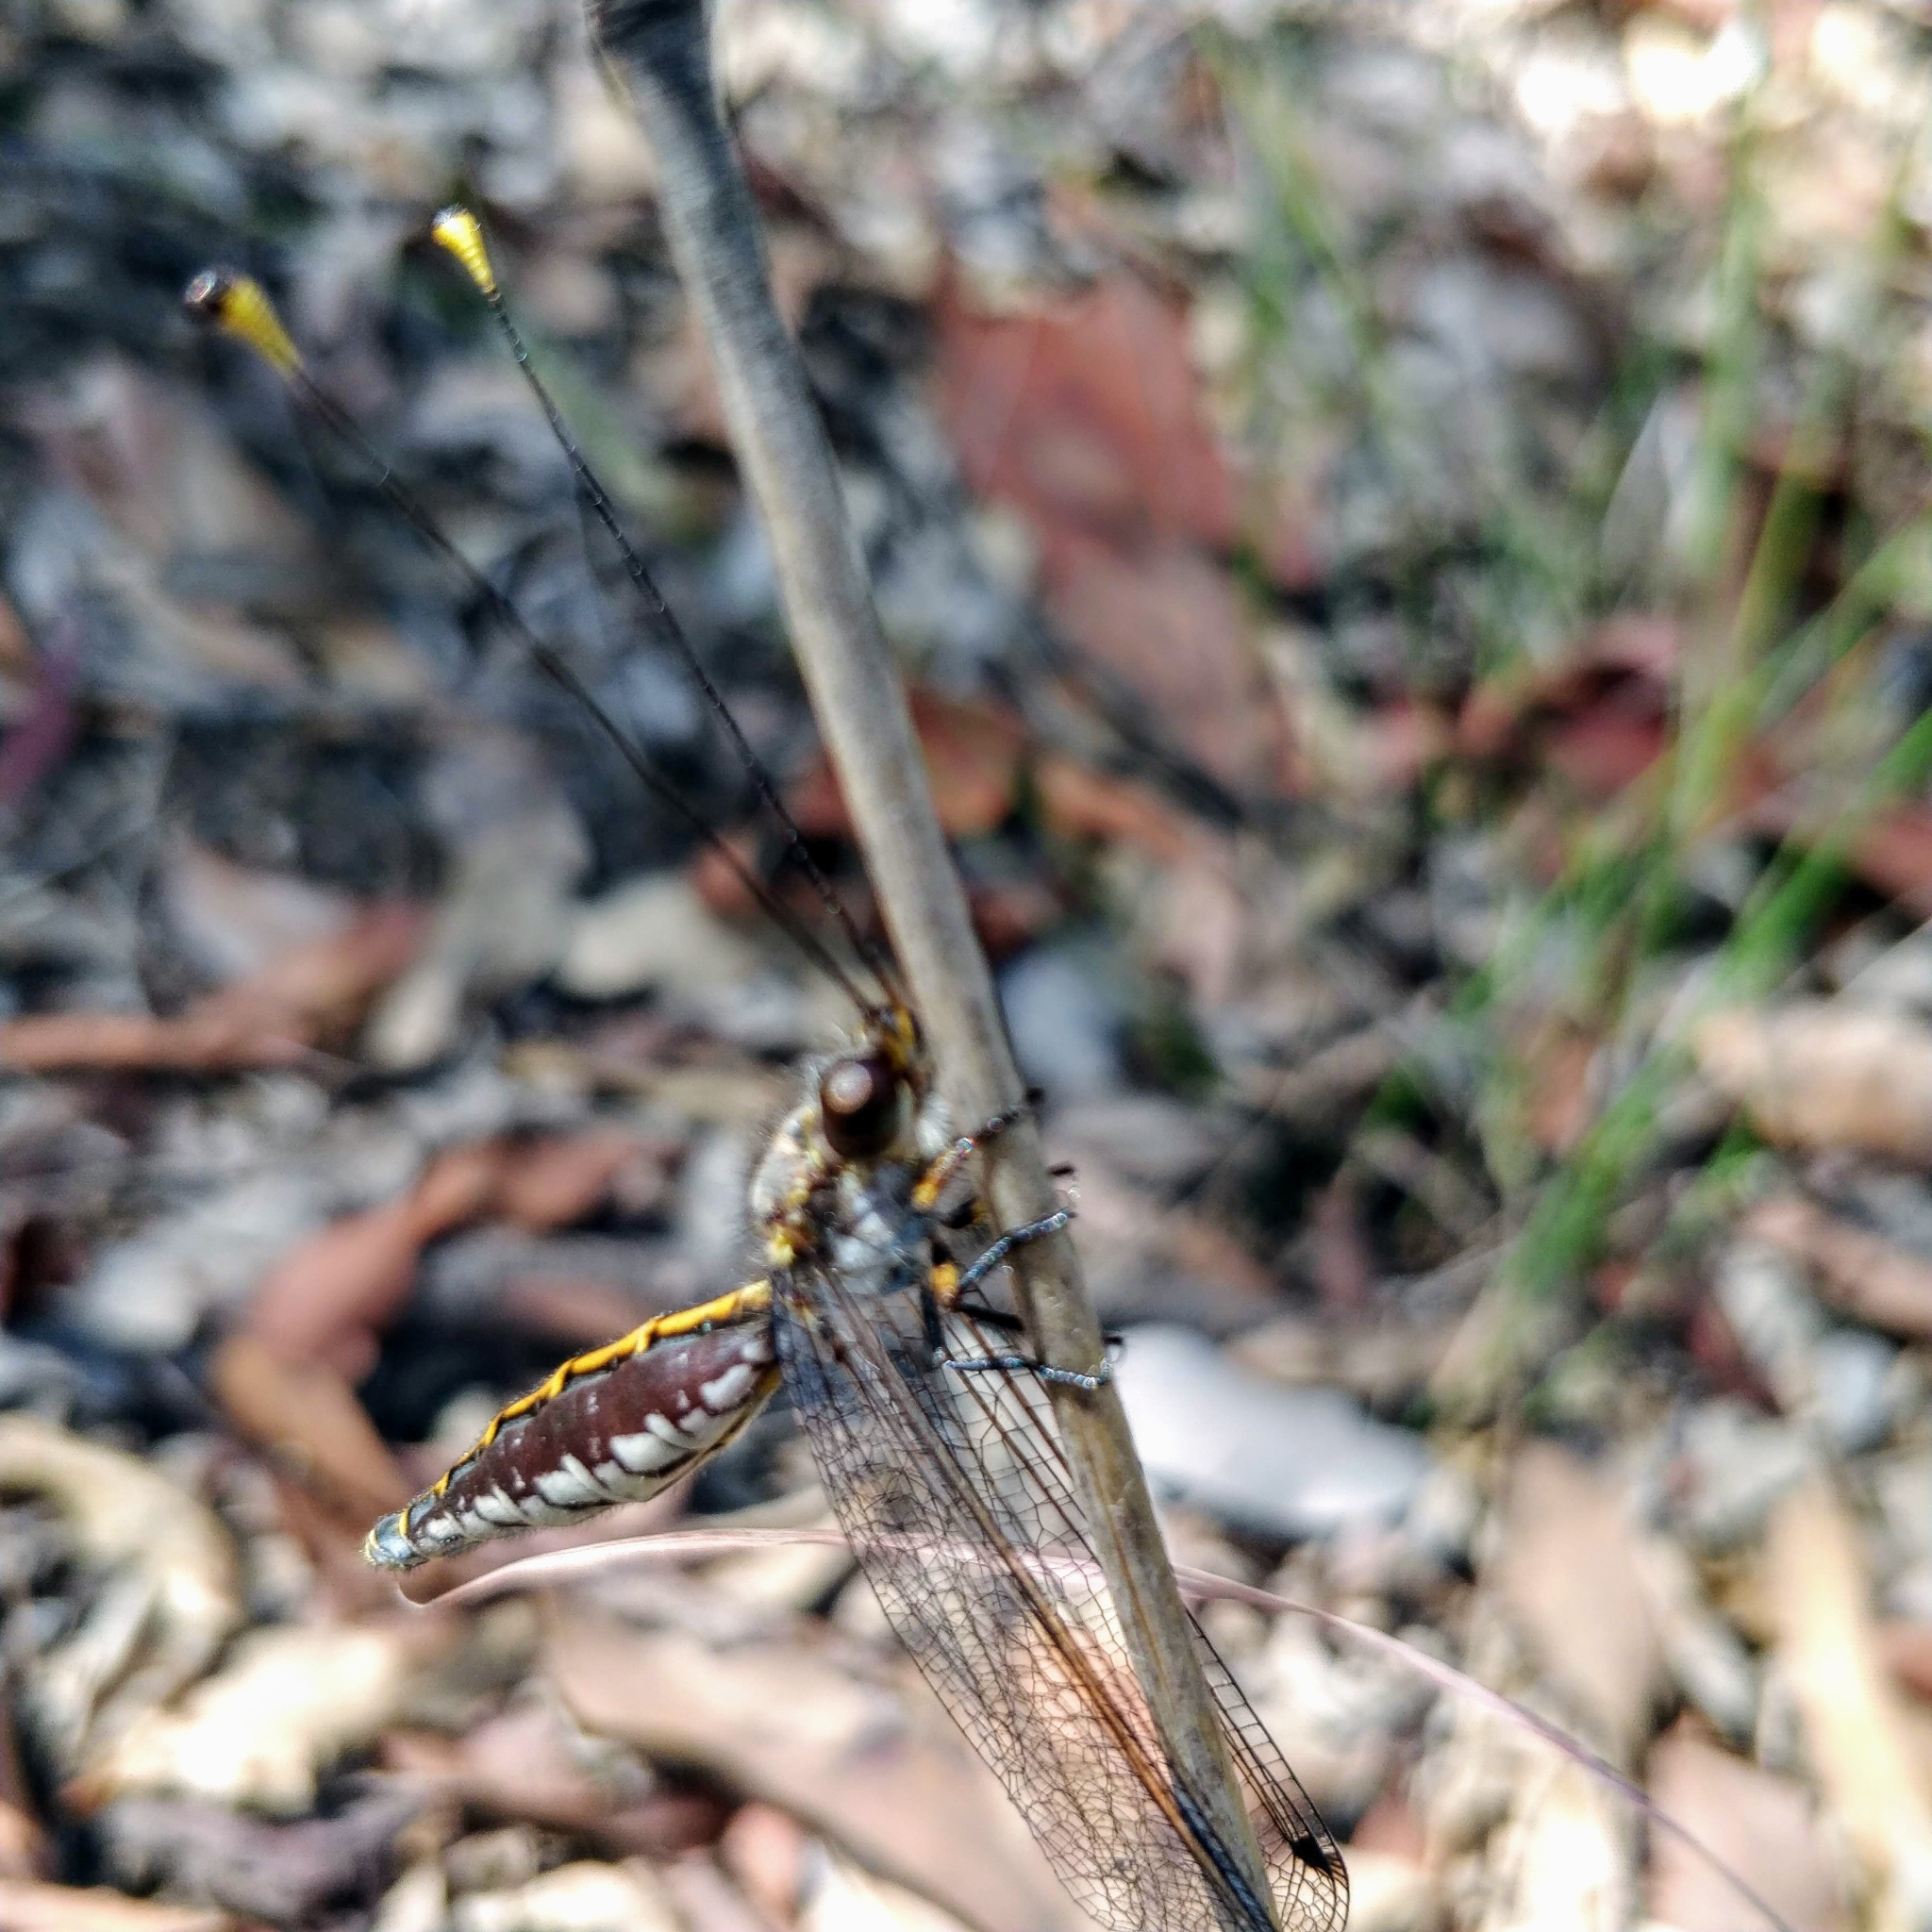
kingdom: Animalia
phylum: Arthropoda
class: Insecta
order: Neuroptera
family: Ascalaphidae
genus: Suhpalacsa
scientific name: Suhpalacsa subtrahens
